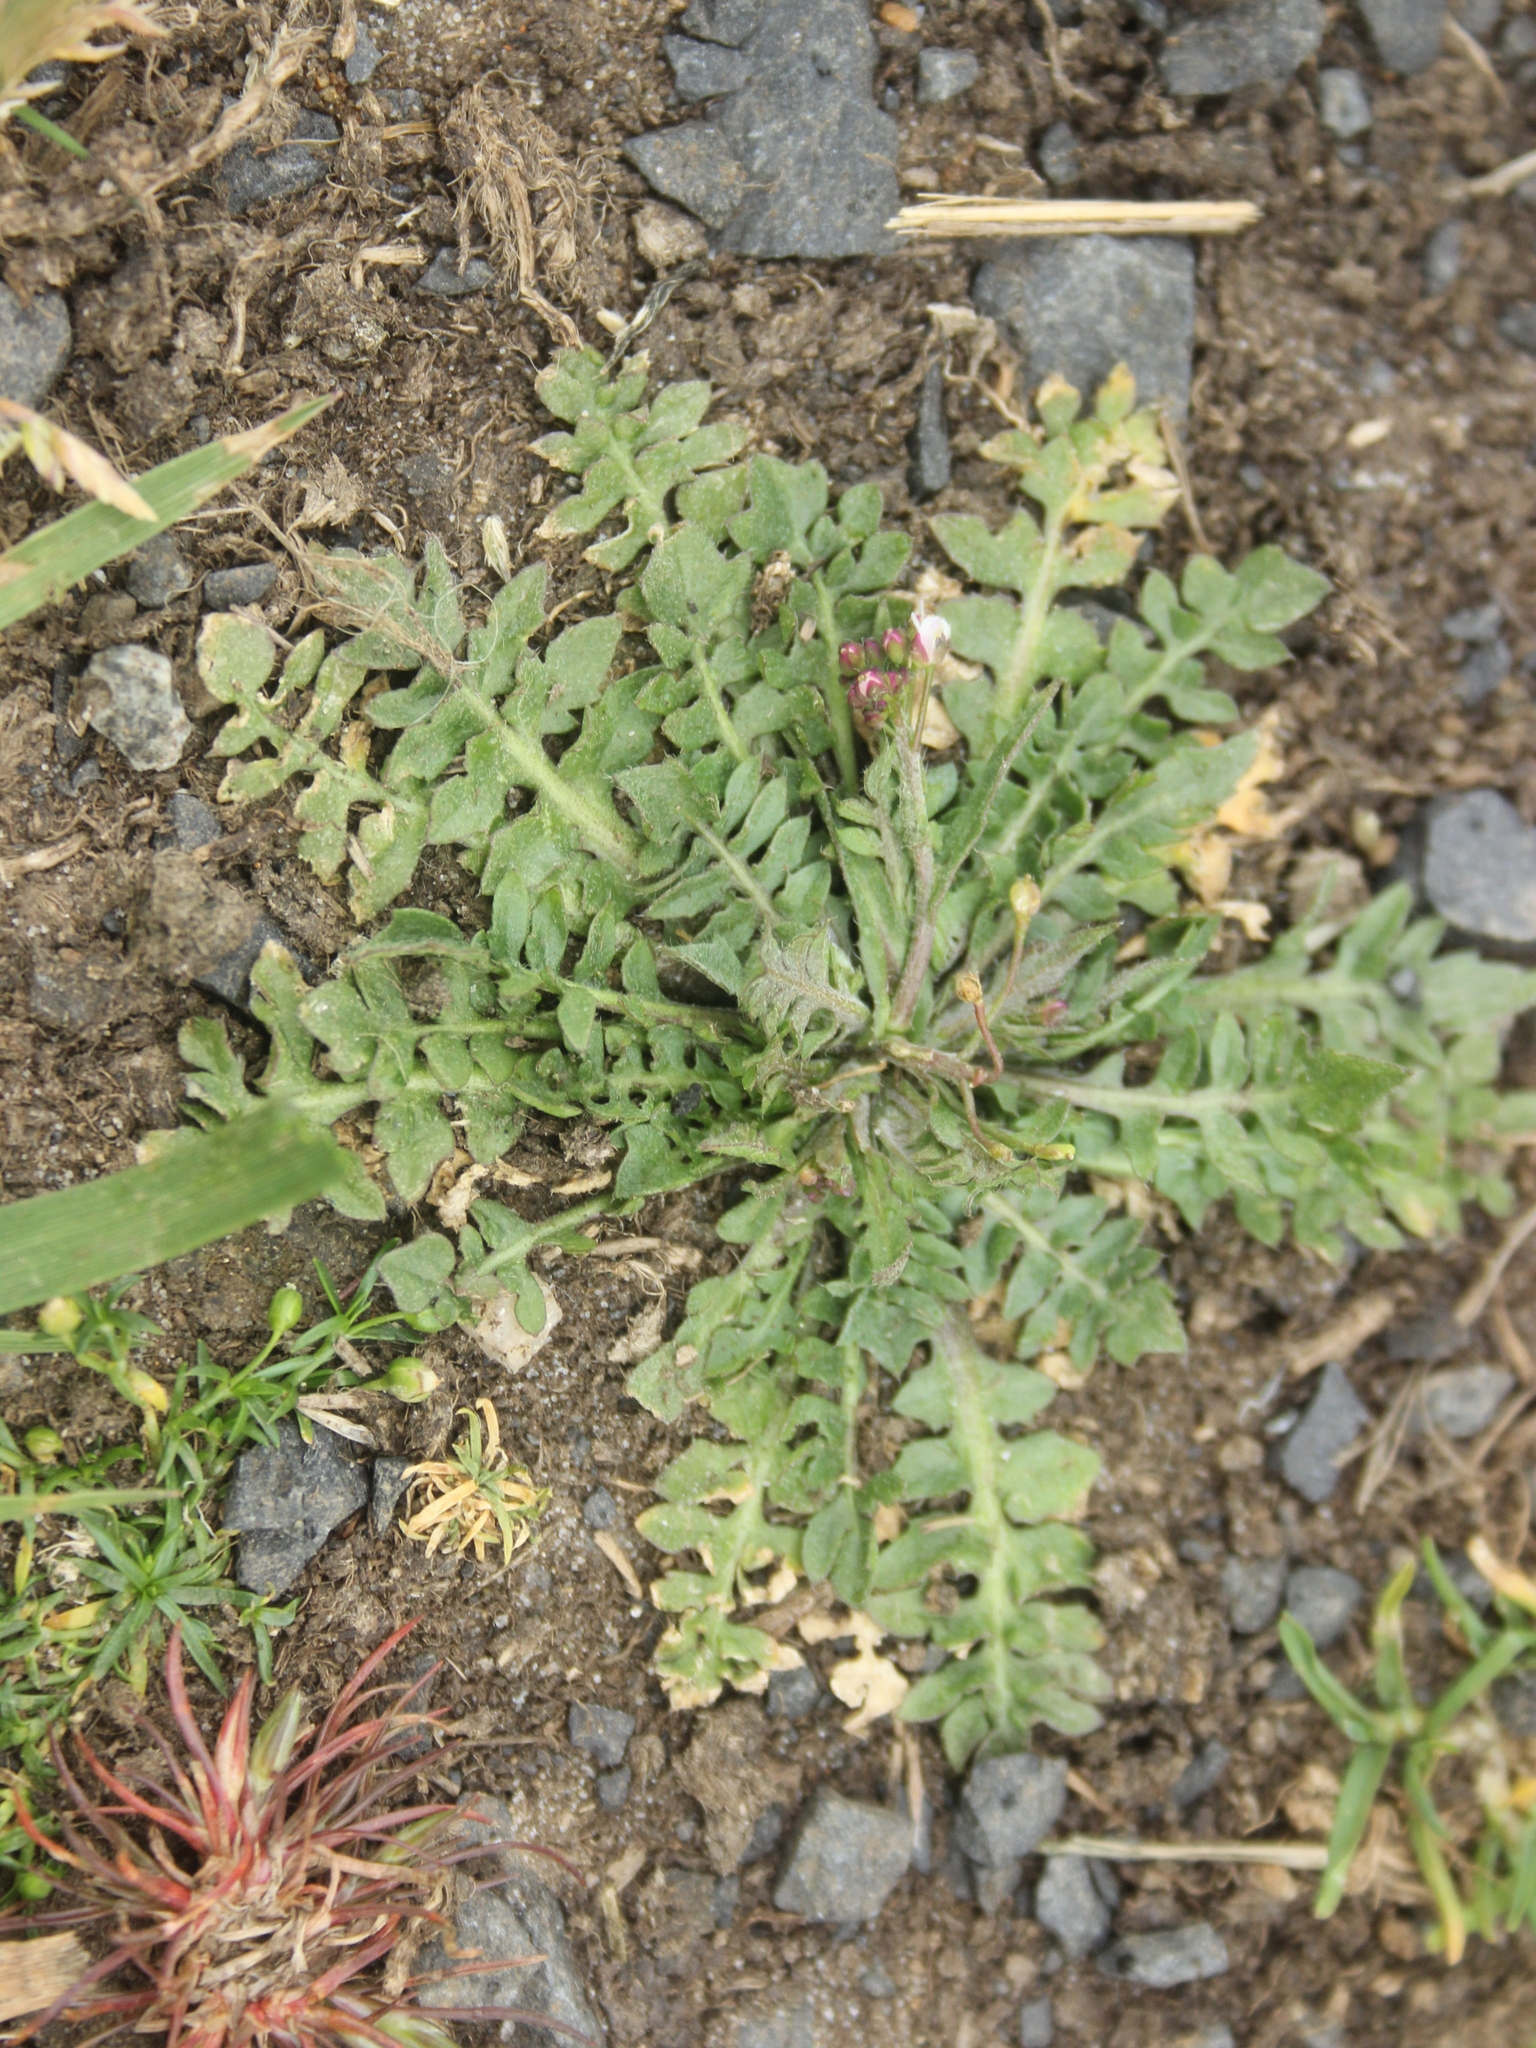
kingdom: Plantae
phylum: Tracheophyta
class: Magnoliopsida
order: Brassicales
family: Brassicaceae
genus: Capsella
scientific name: Capsella bursa-pastoris
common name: Shepherd's purse
